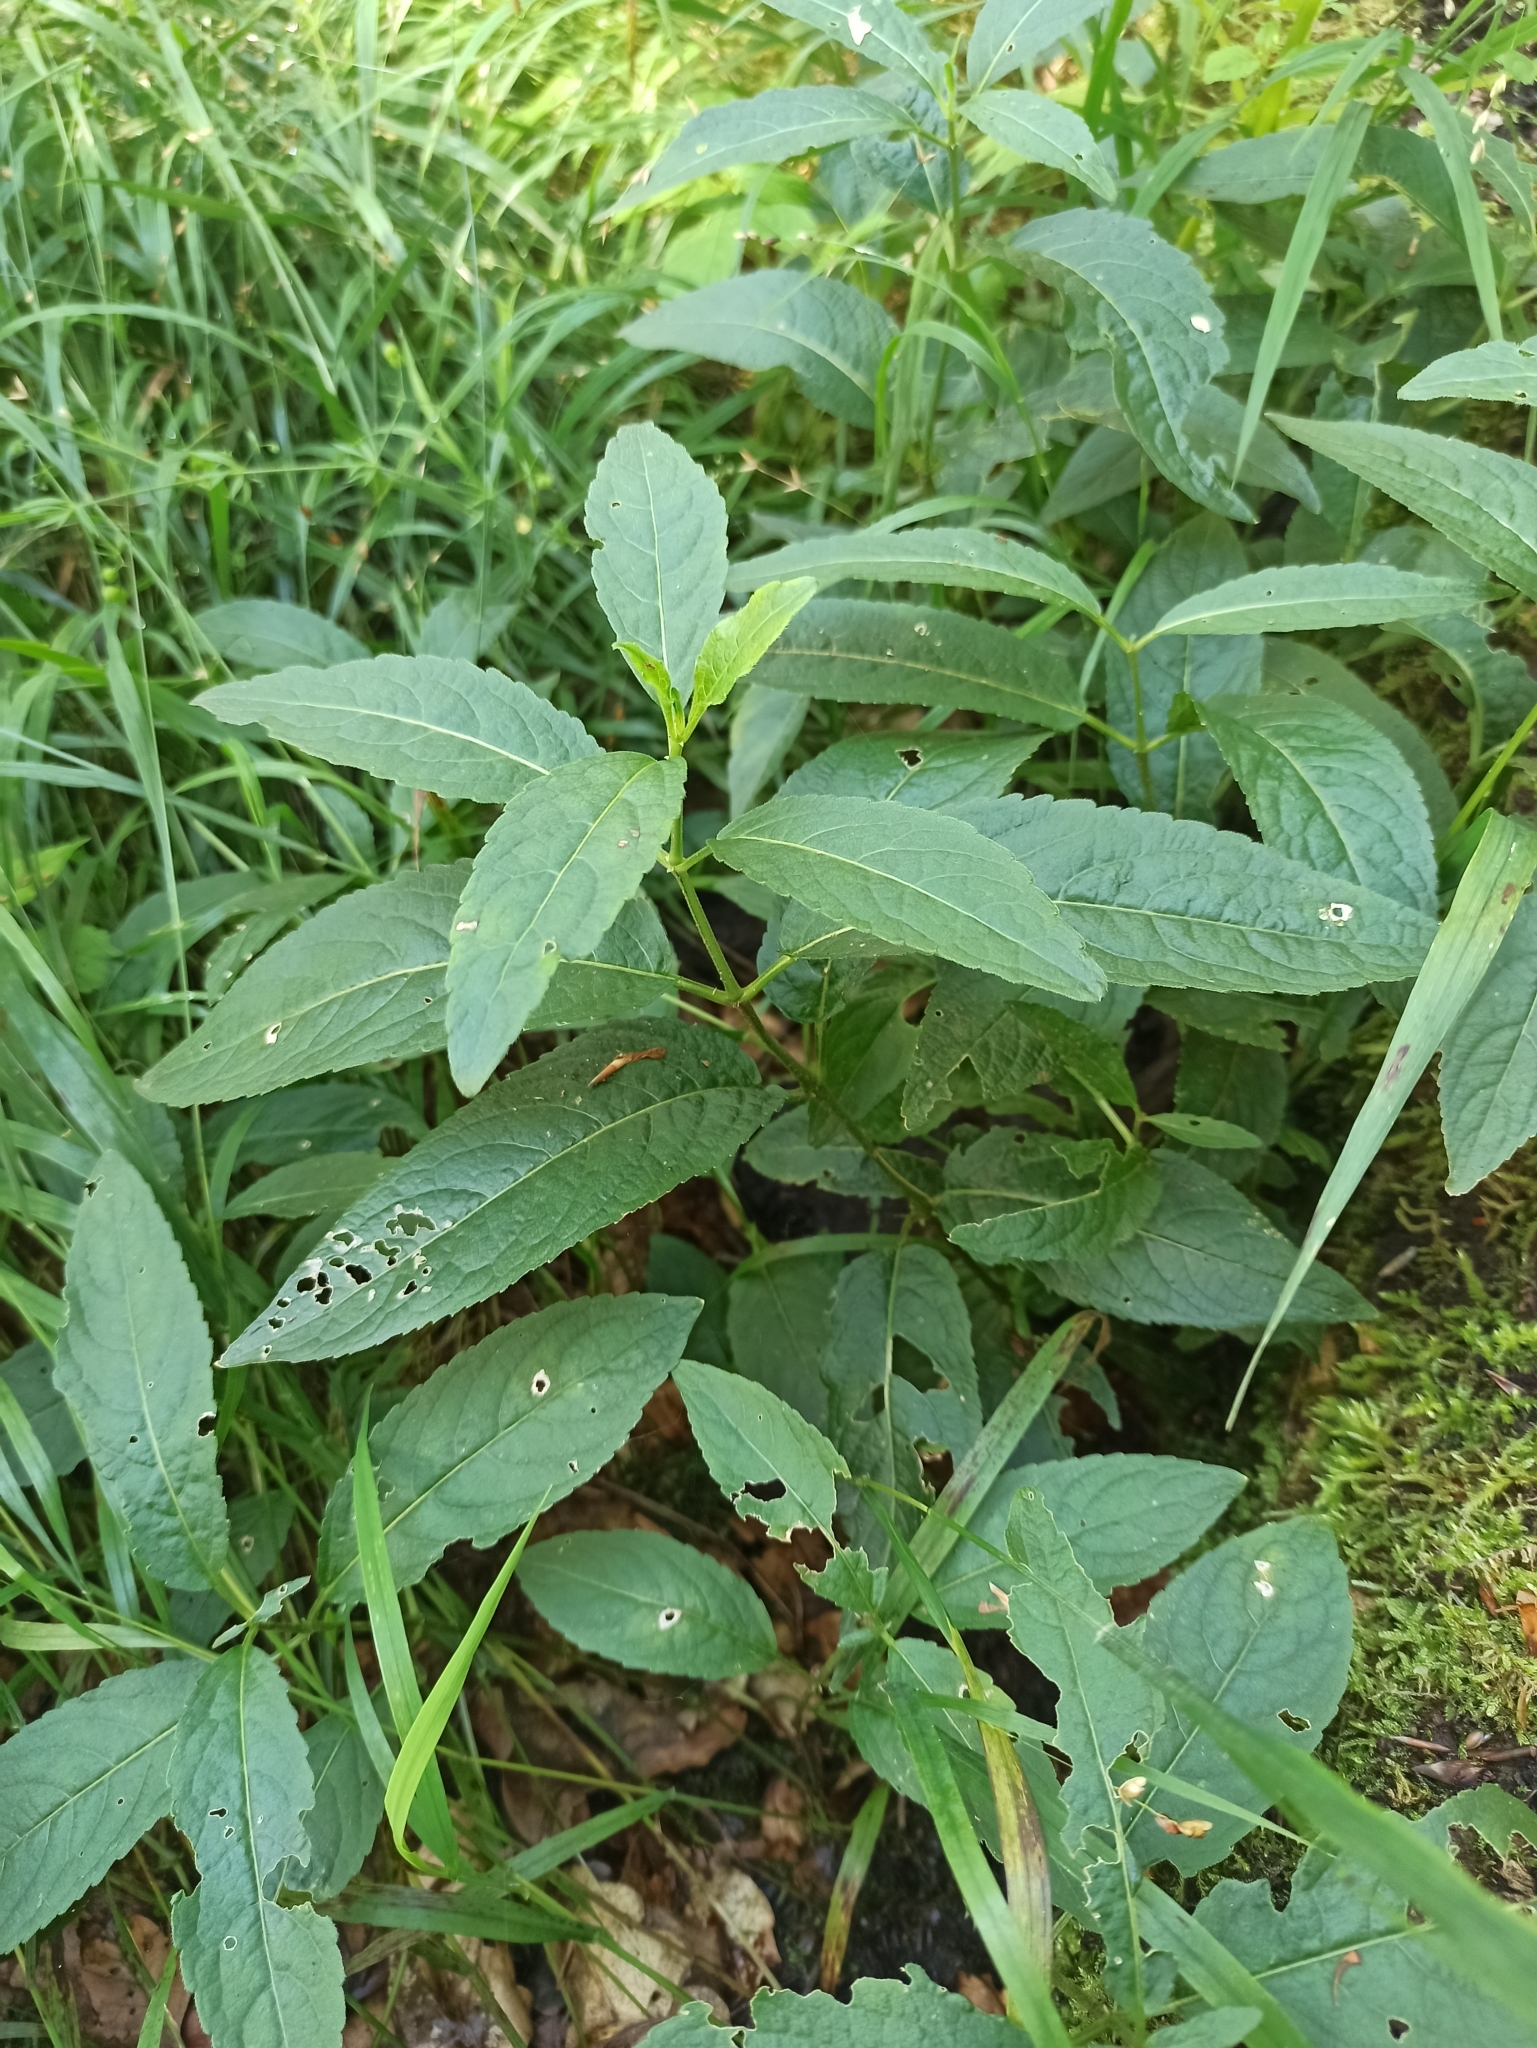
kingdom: Plantae
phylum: Tracheophyta
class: Magnoliopsida
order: Malpighiales
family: Euphorbiaceae
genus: Mercurialis
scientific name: Mercurialis perennis
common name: Dog mercury
